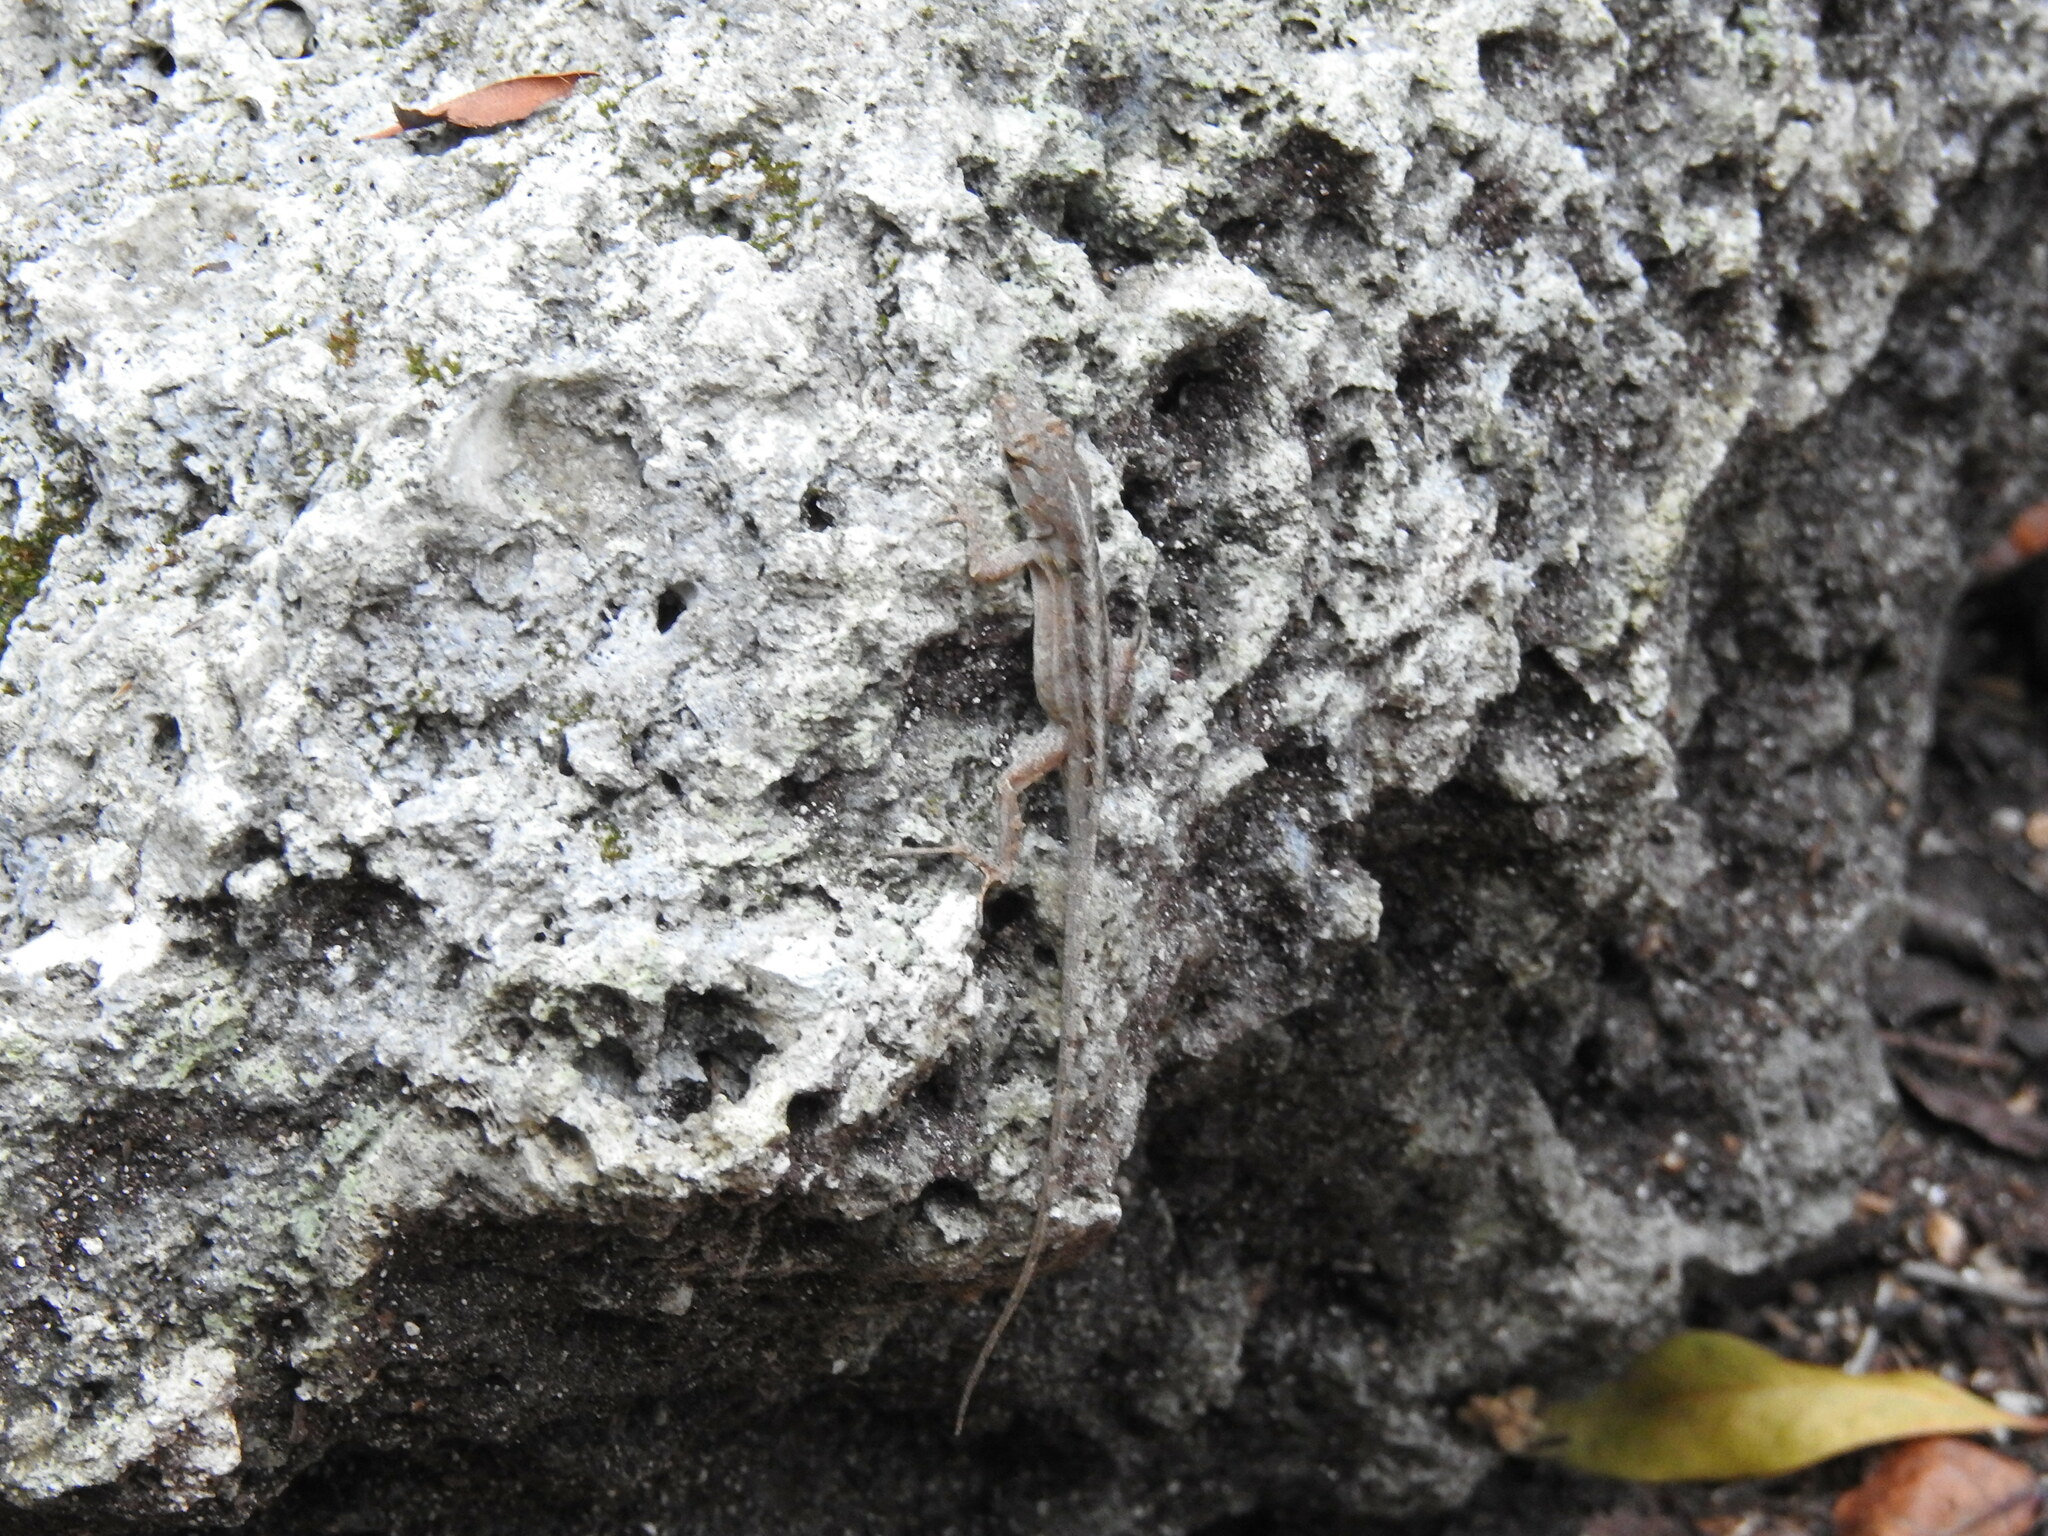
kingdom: Animalia
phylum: Chordata
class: Squamata
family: Dactyloidae
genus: Anolis
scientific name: Anolis sagrei
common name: Brown anole
